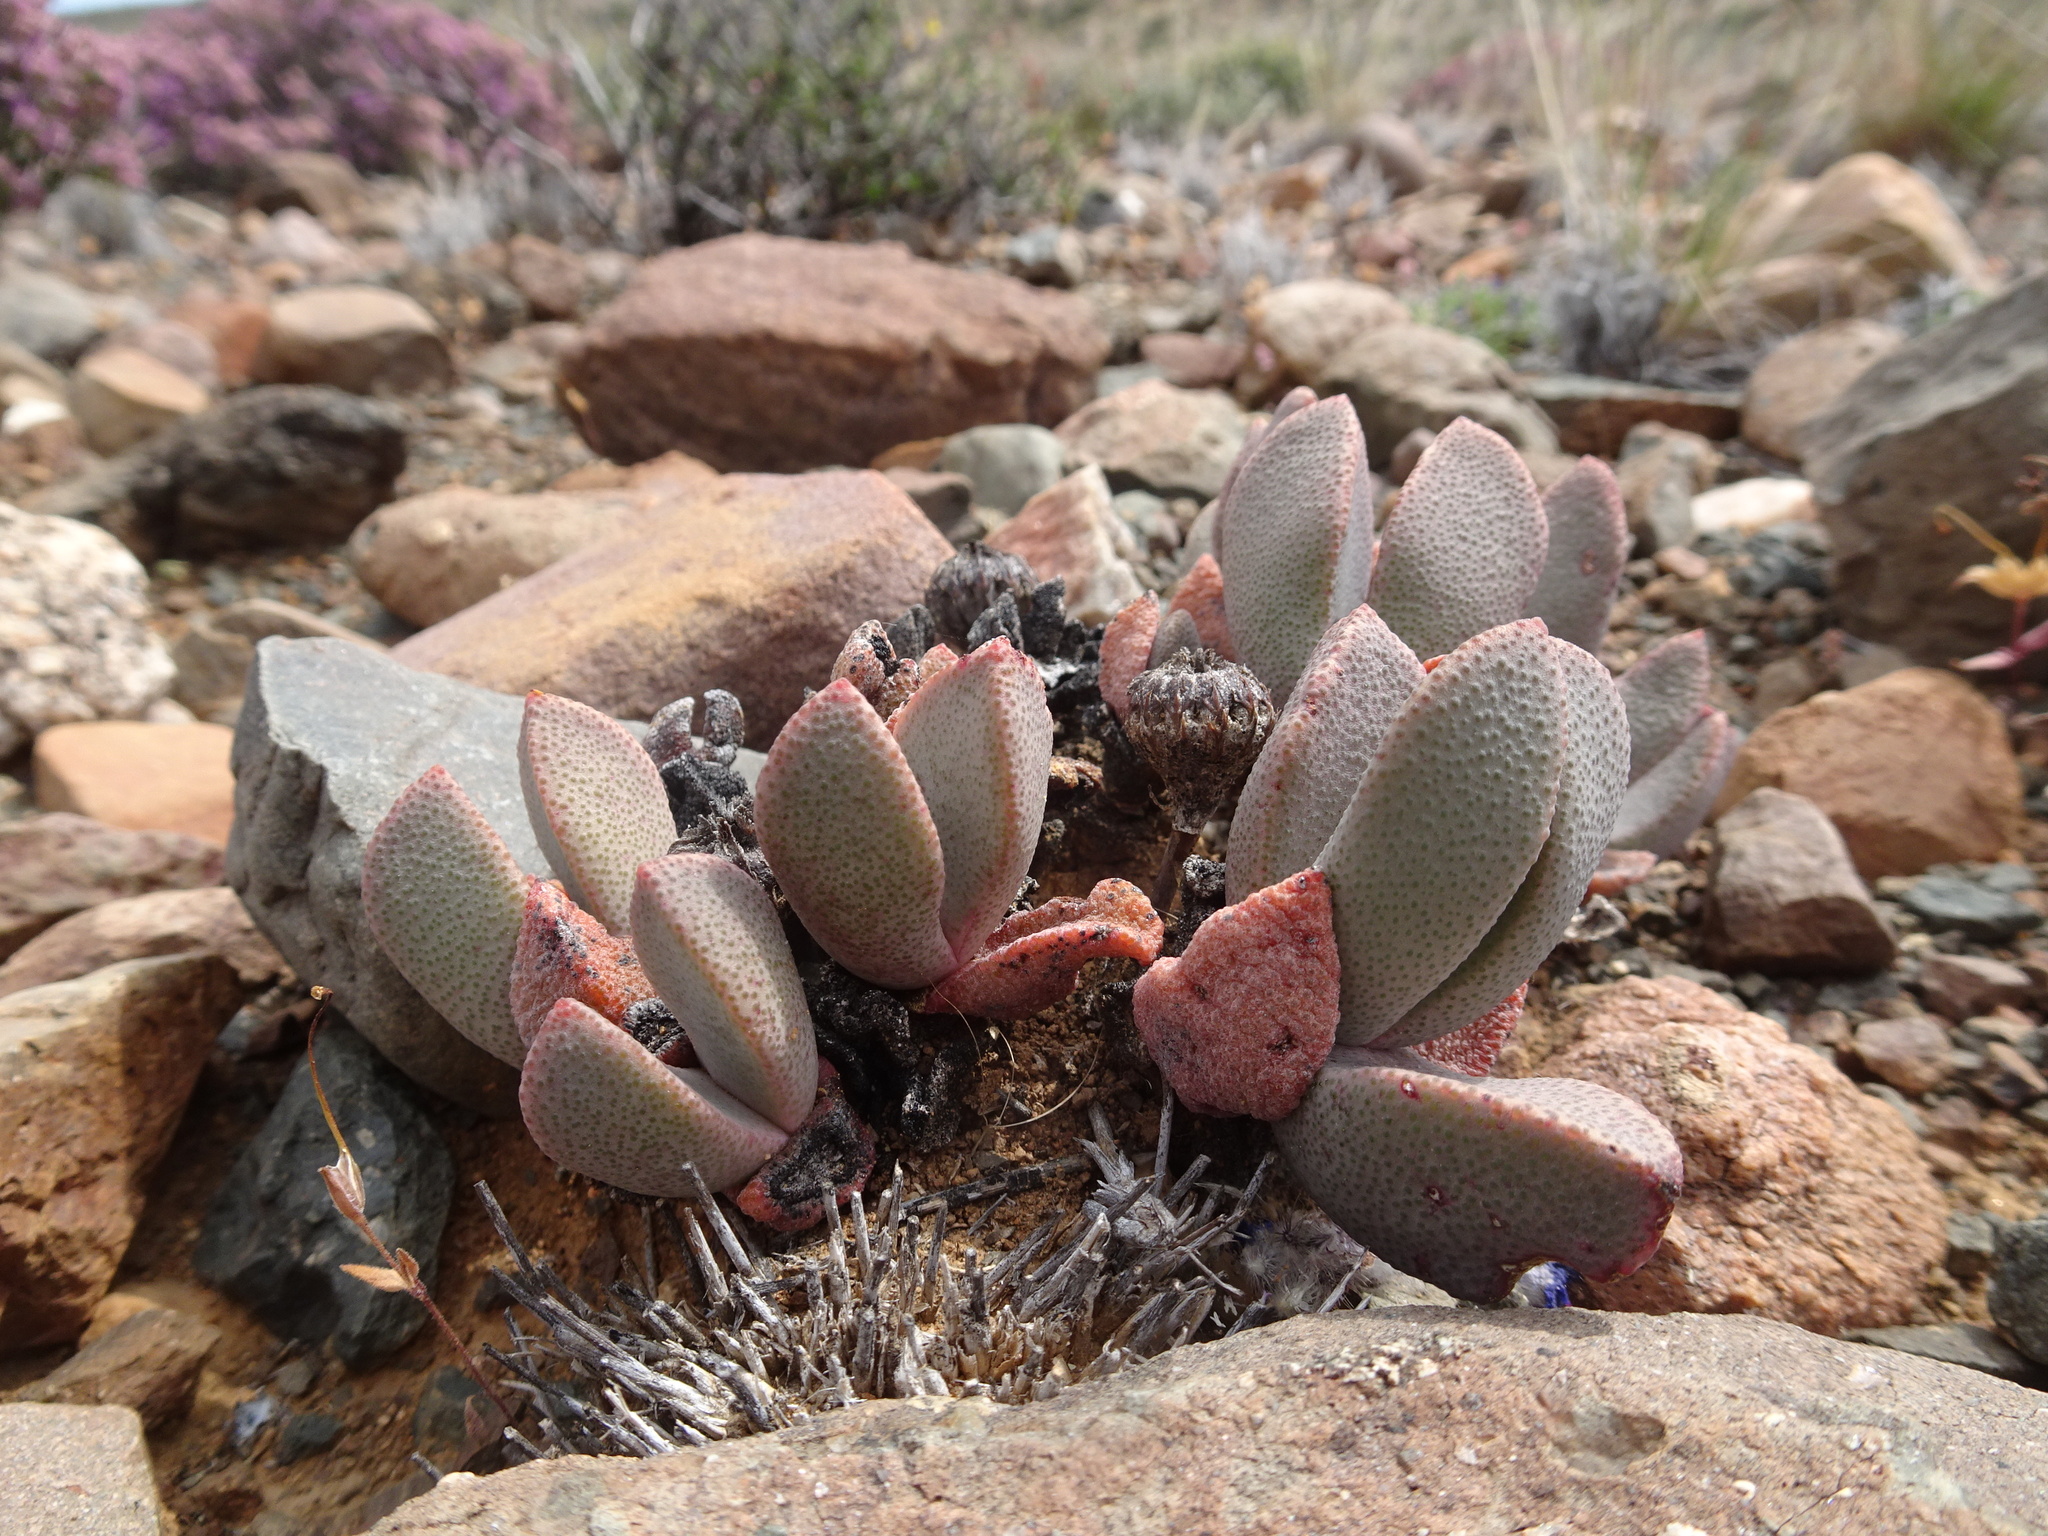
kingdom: Plantae
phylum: Tracheophyta
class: Magnoliopsida
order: Caryophyllales
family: Aizoaceae
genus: Pleiospilos
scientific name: Pleiospilos compactus
